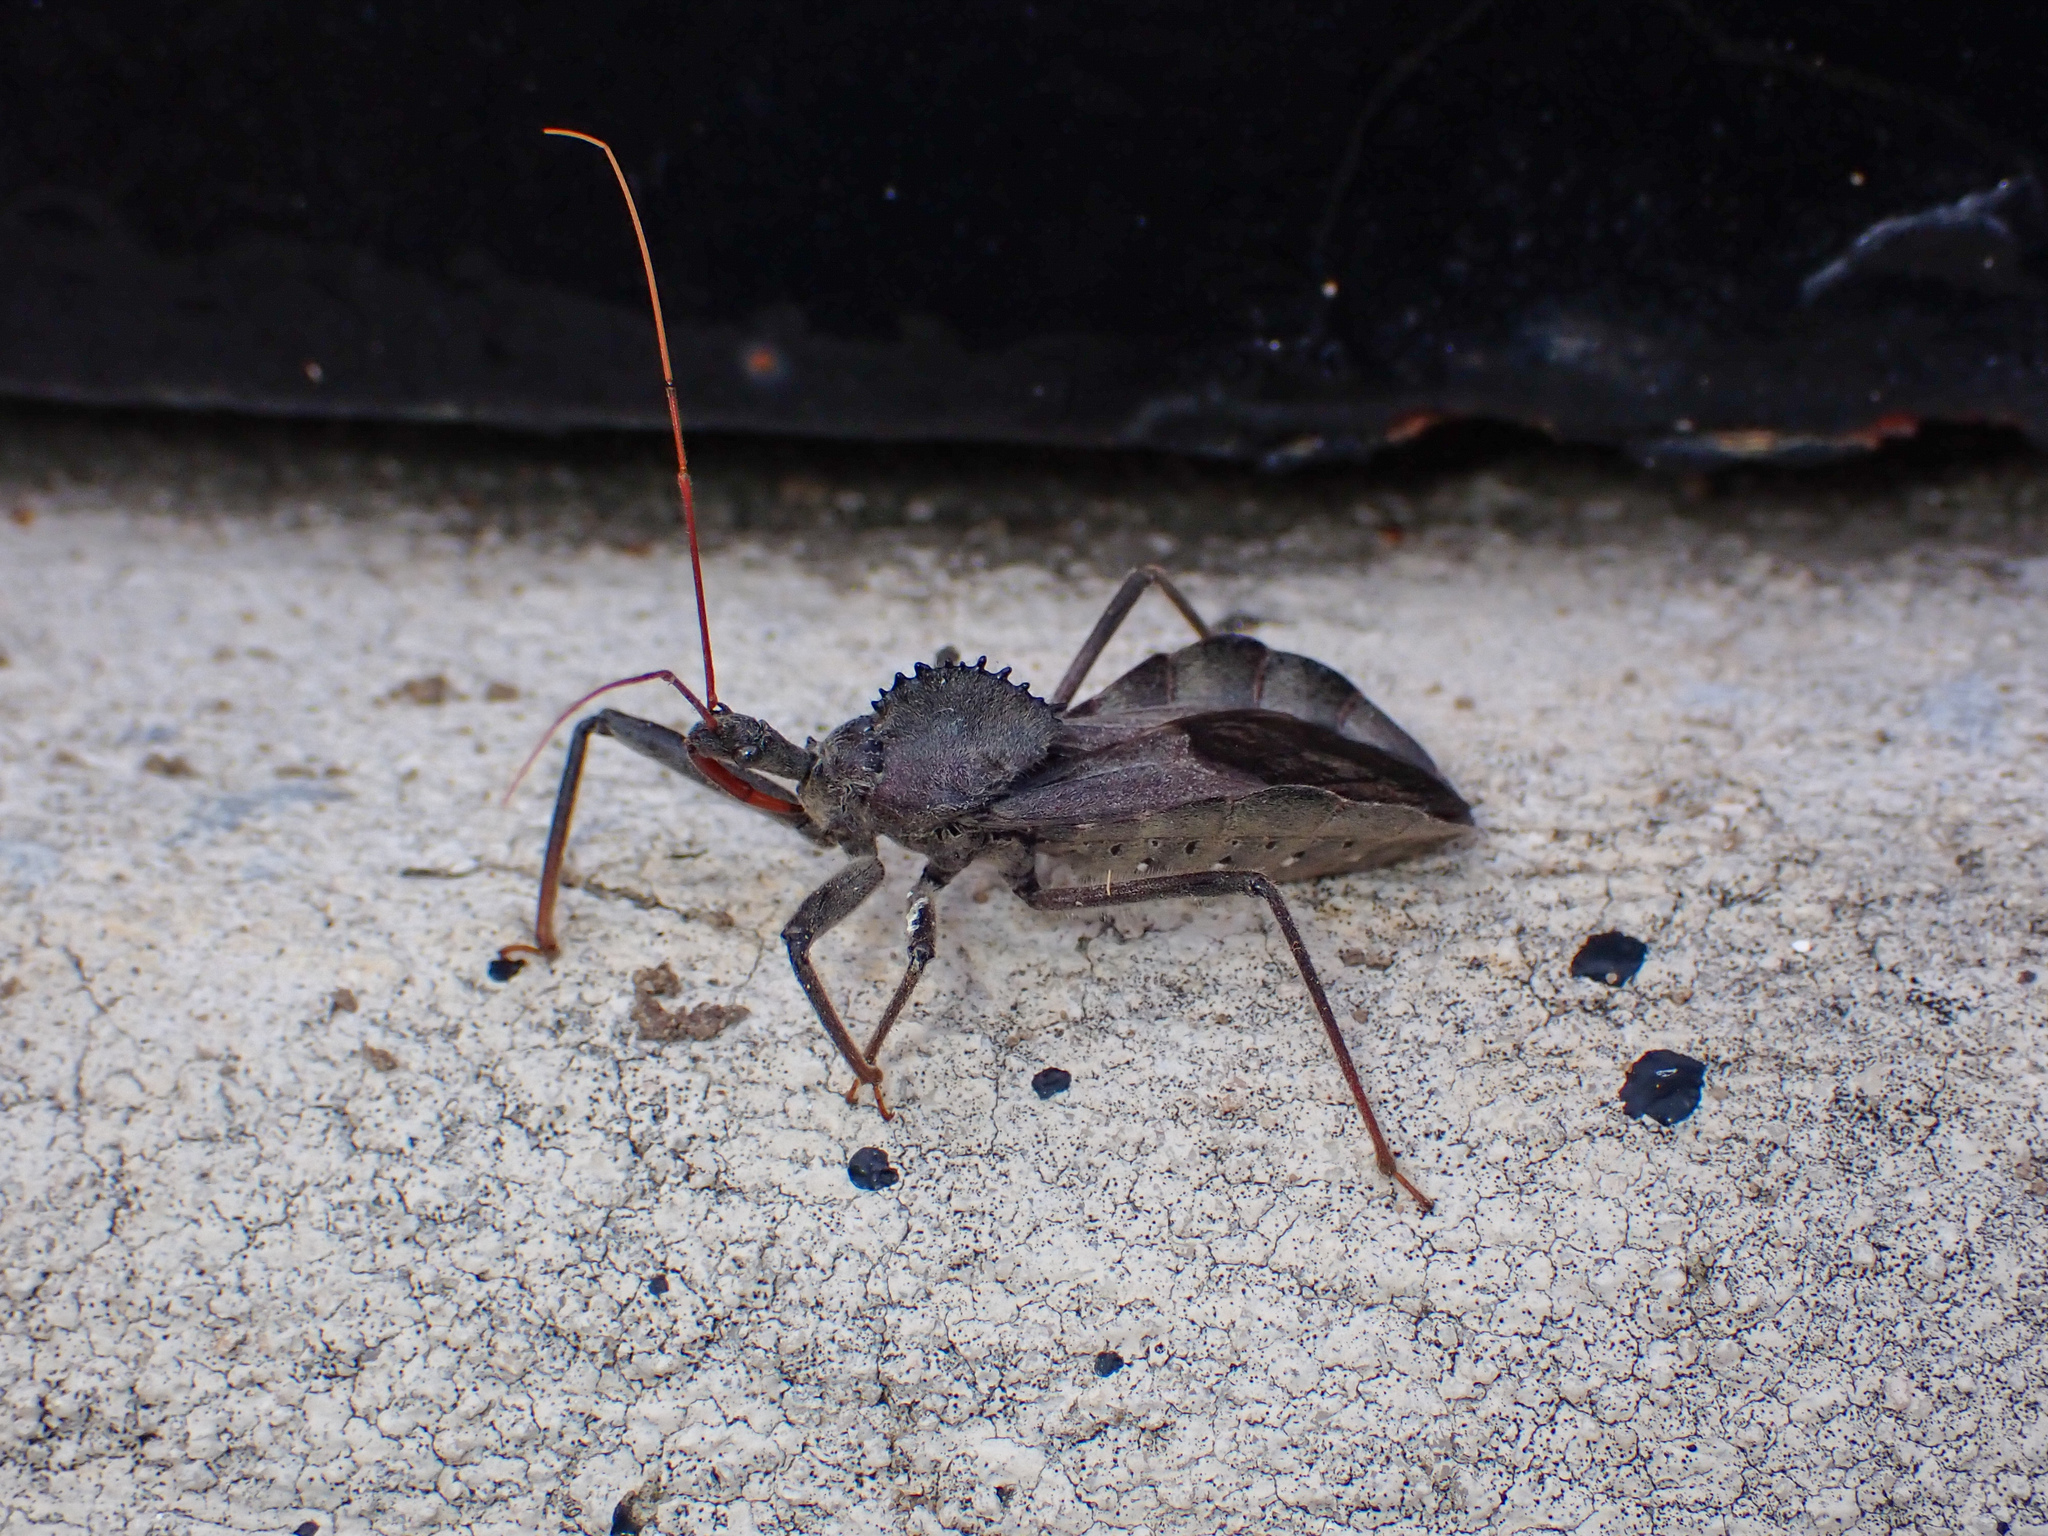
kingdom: Animalia
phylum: Arthropoda
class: Insecta
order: Hemiptera
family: Reduviidae
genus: Arilus
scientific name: Arilus cristatus
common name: North american wheel bug
